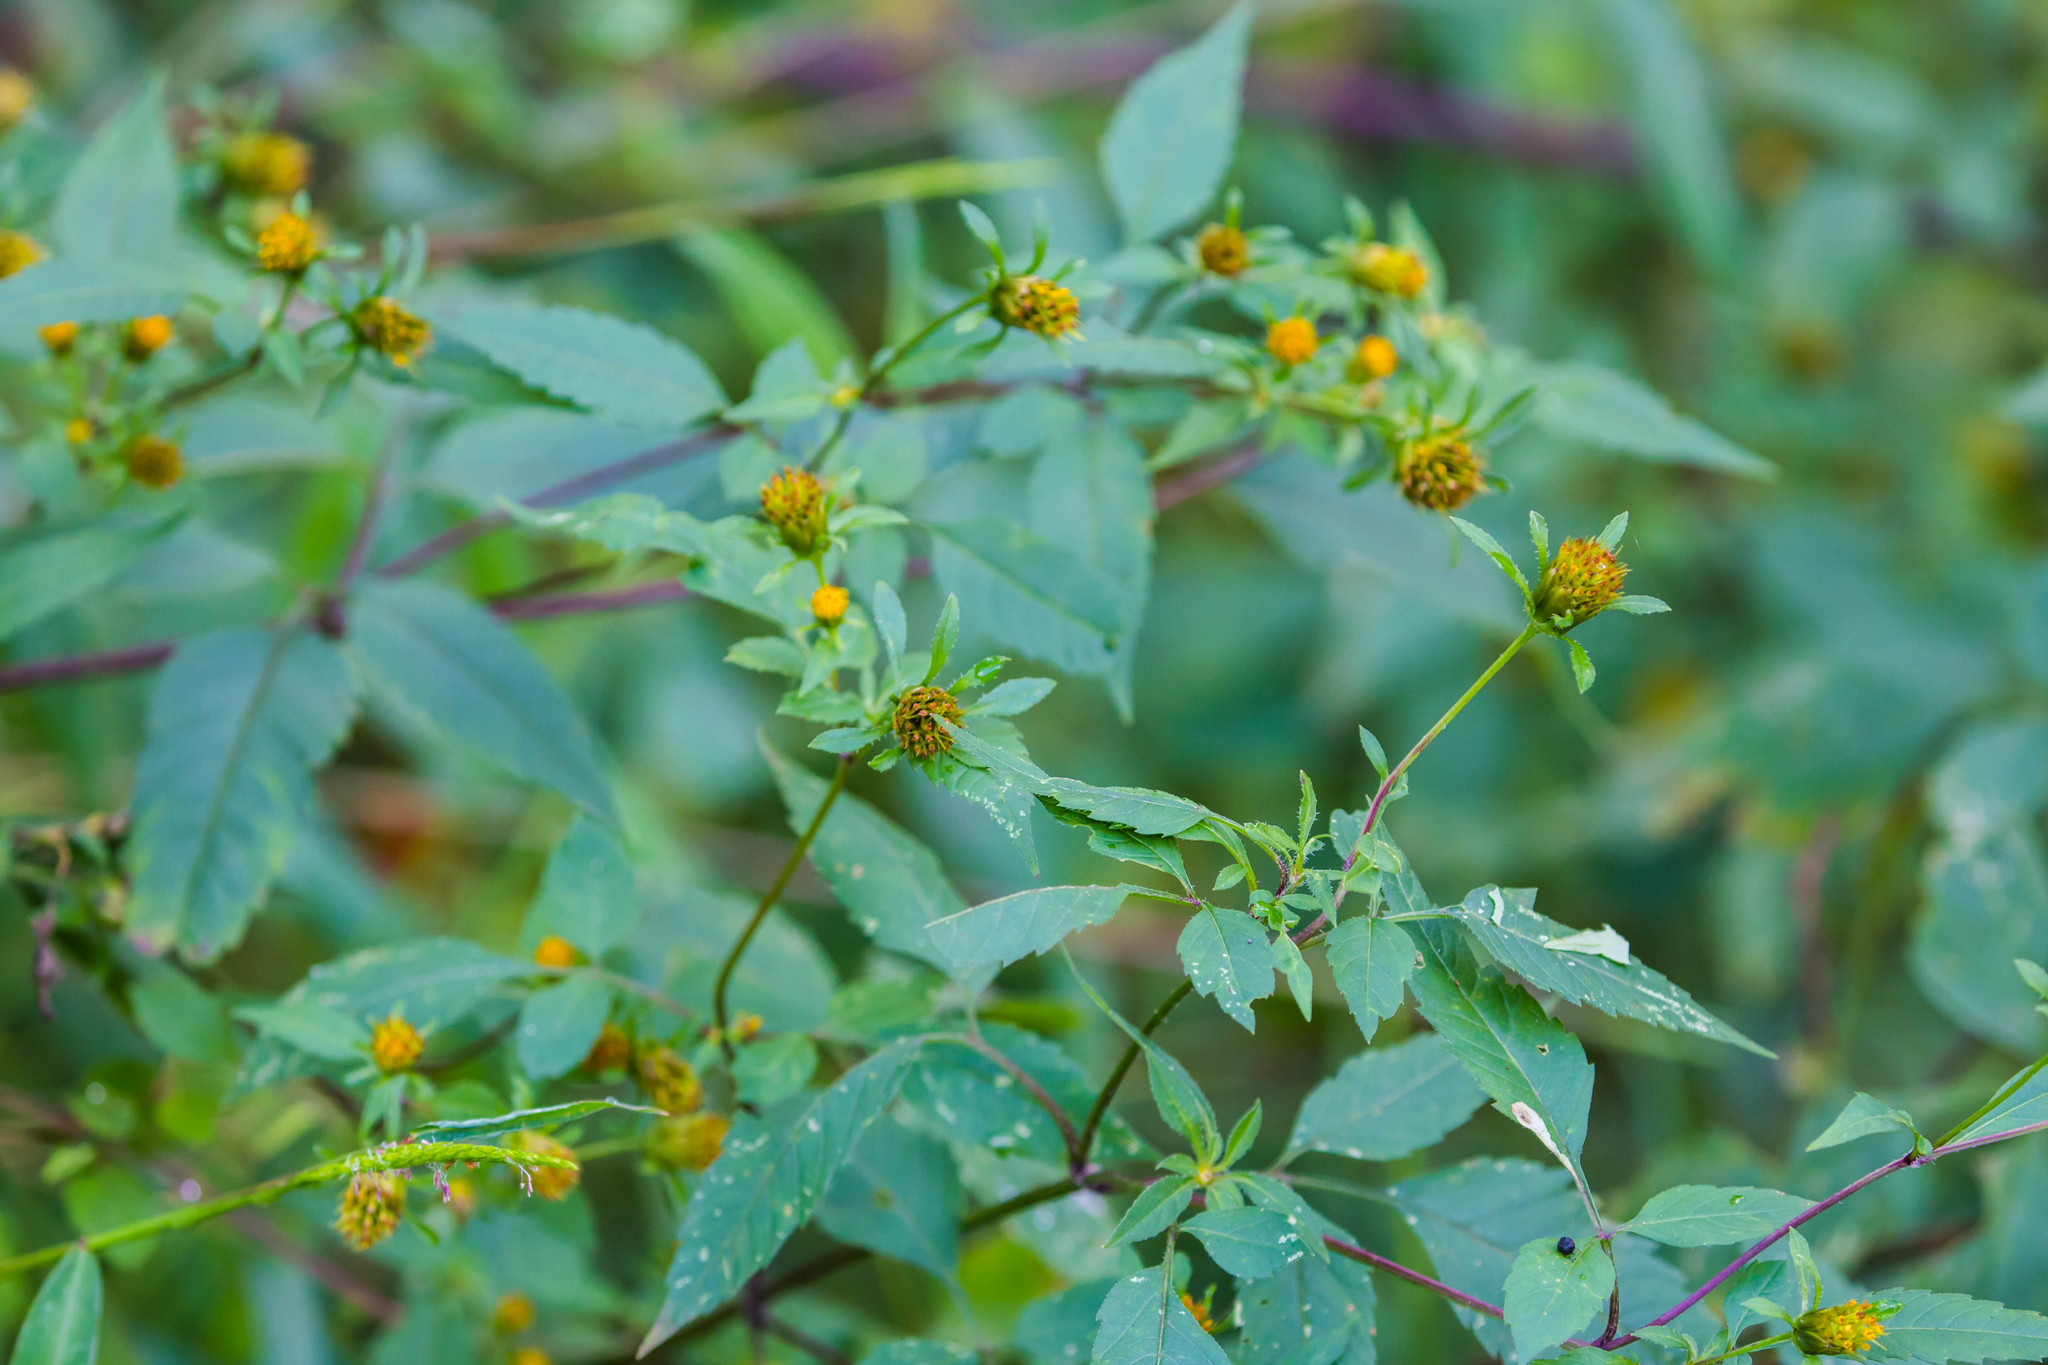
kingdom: Plantae
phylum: Tracheophyta
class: Magnoliopsida
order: Asterales
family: Asteraceae
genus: Bidens
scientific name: Bidens frondosa
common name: Beggarticks
